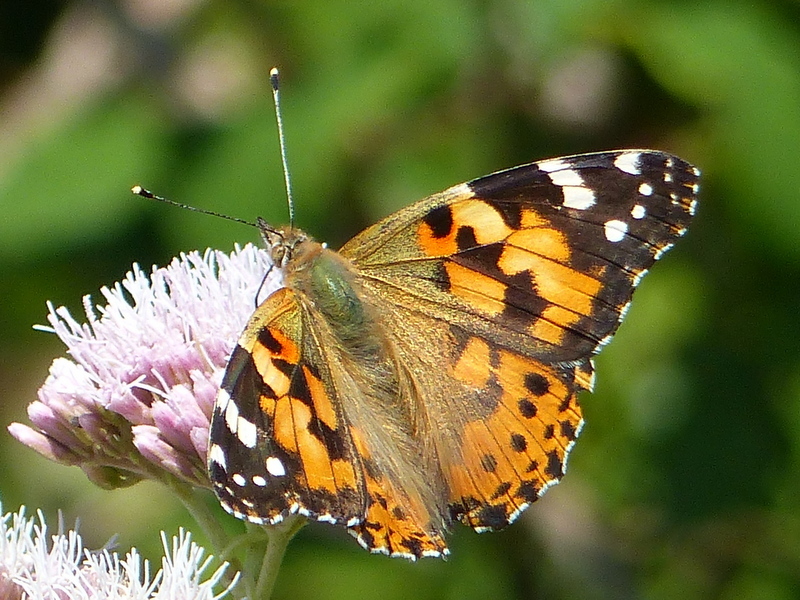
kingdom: Animalia
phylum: Arthropoda
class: Insecta
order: Lepidoptera
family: Nymphalidae
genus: Vanessa
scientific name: Vanessa cardui
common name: Painted lady
